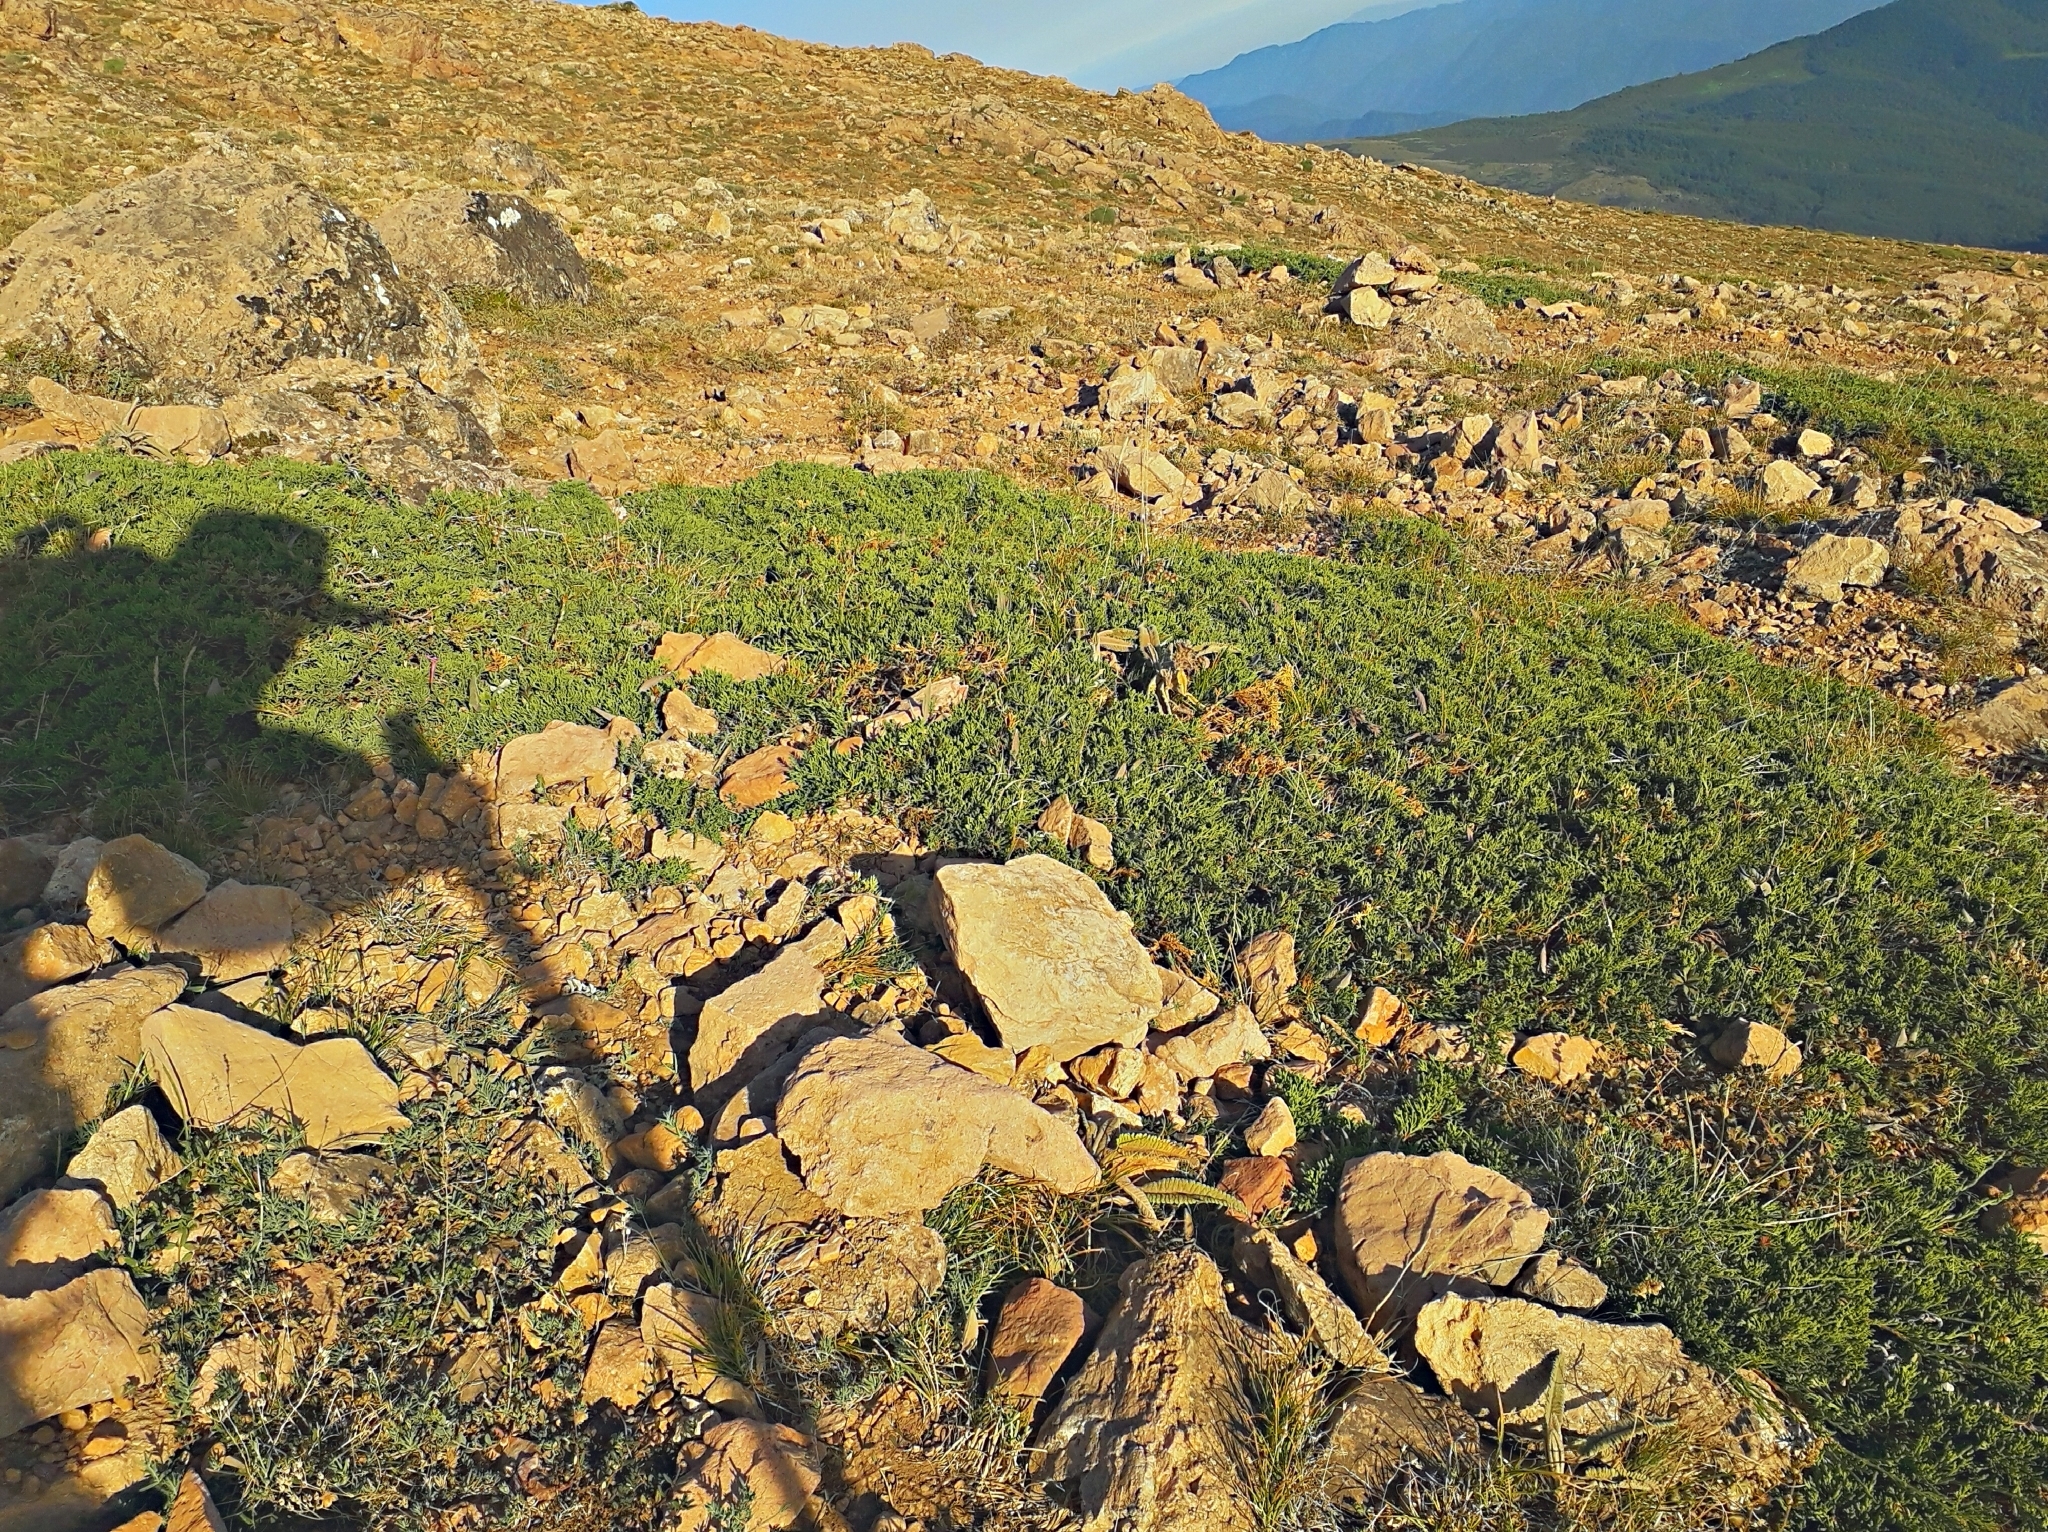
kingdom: Plantae
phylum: Tracheophyta
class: Pinopsida
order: Pinales
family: Cupressaceae
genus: Juniperus
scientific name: Juniperus sabina
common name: Savin
